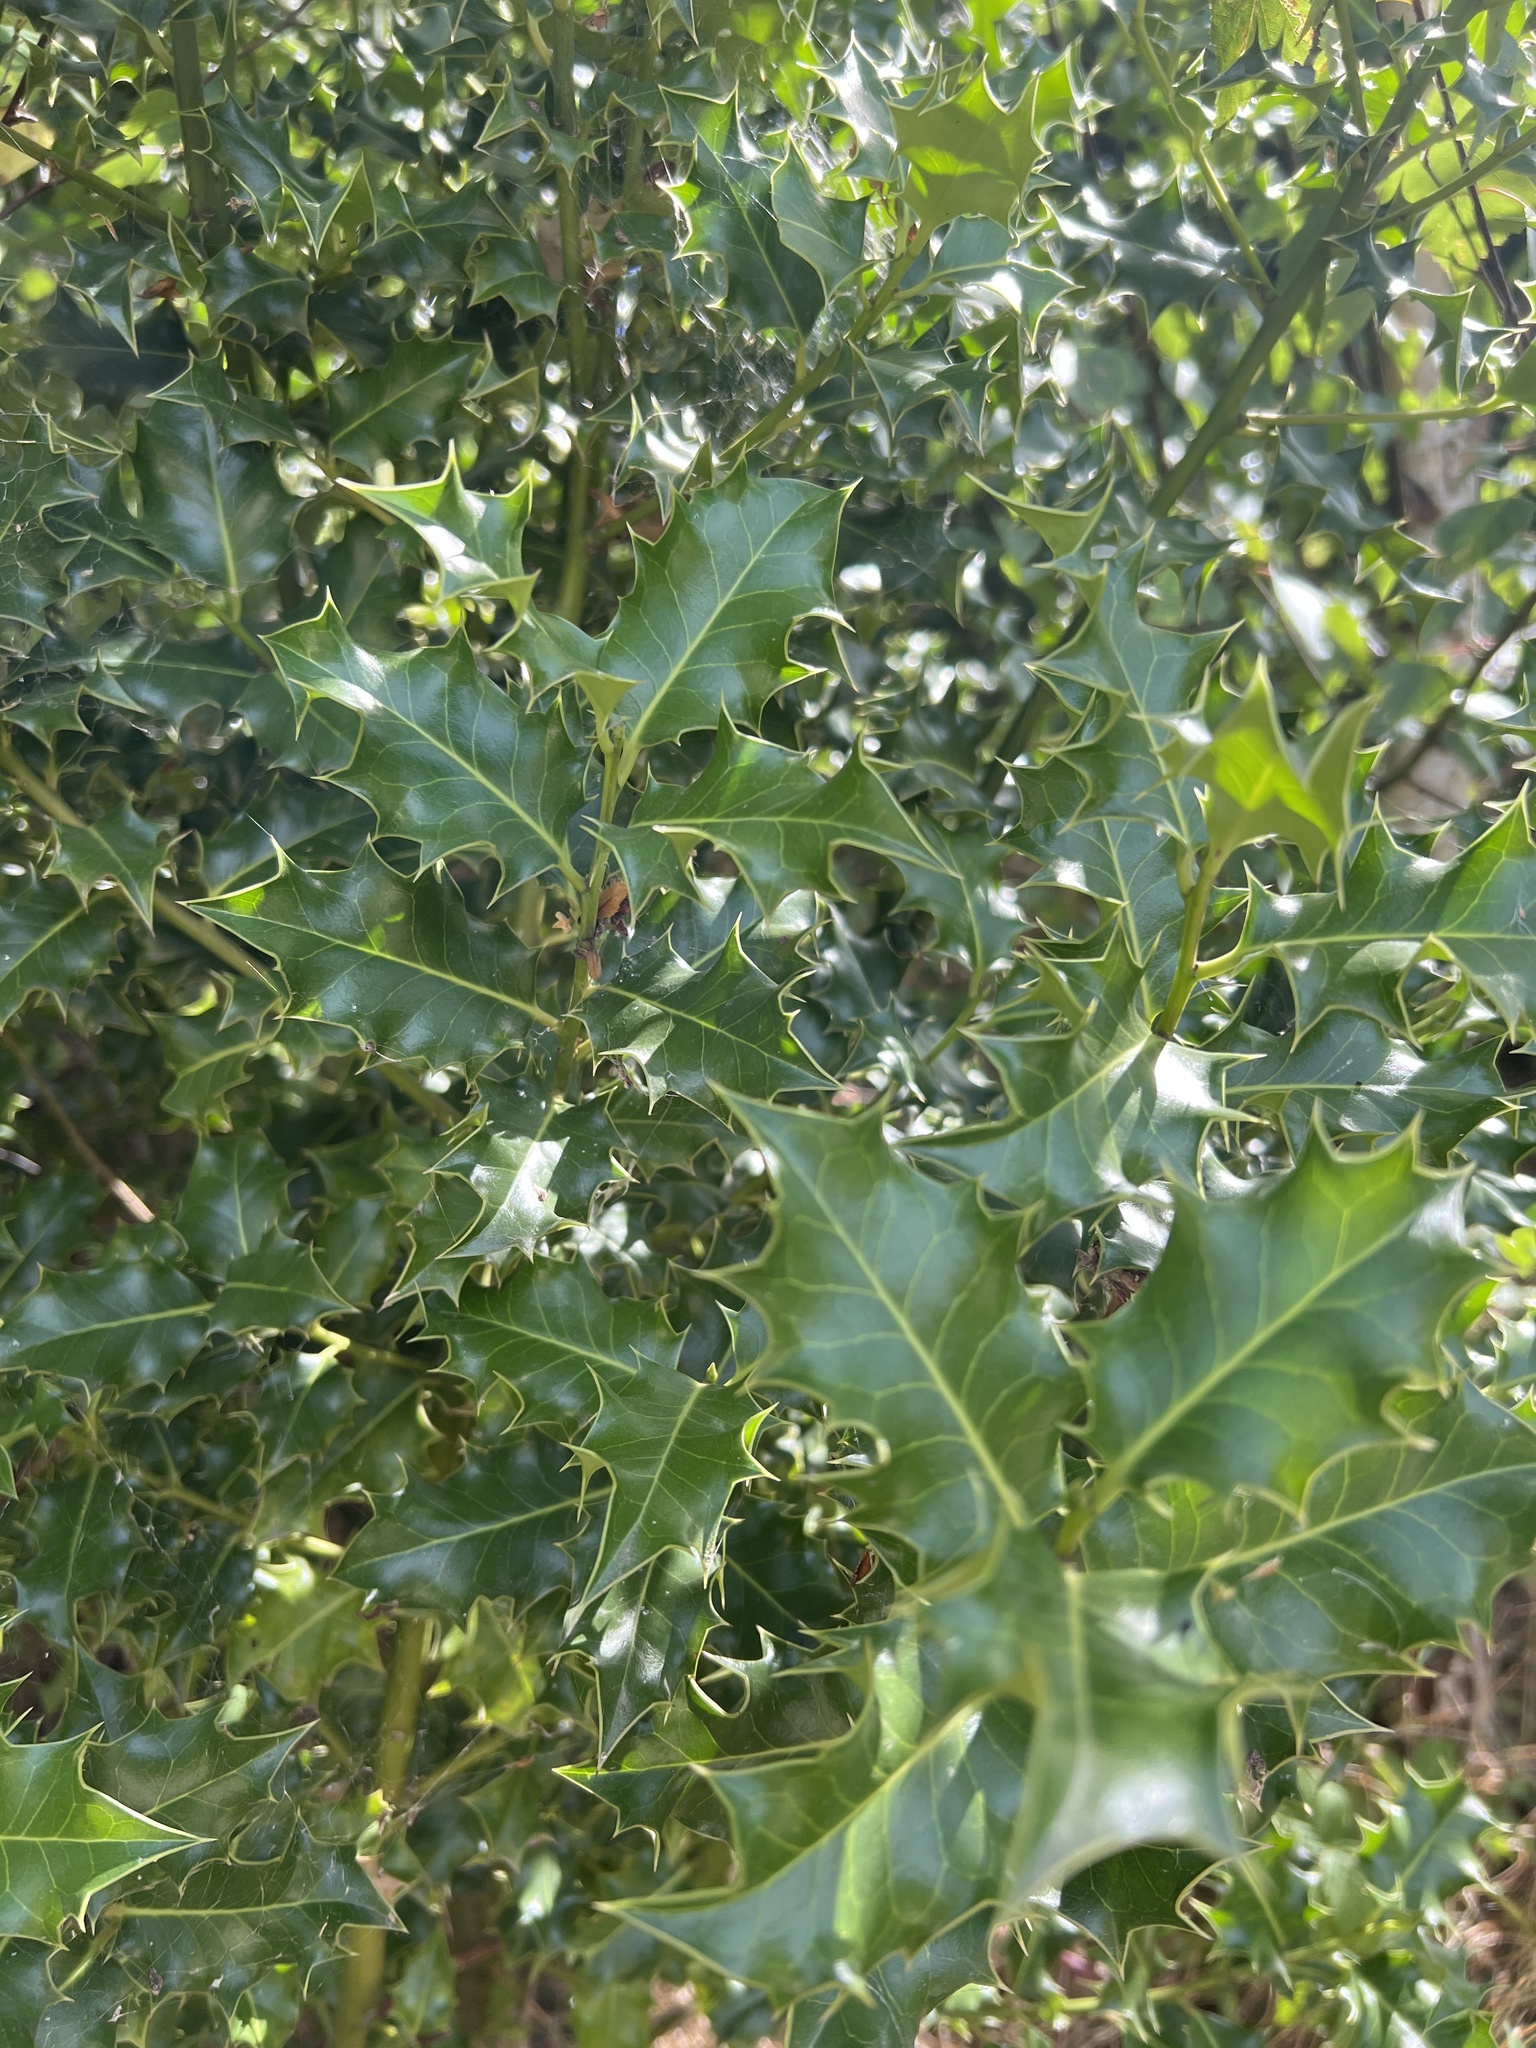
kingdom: Plantae
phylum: Tracheophyta
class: Magnoliopsida
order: Aquifoliales
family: Aquifoliaceae
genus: Ilex
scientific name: Ilex aquifolium
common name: English holly
